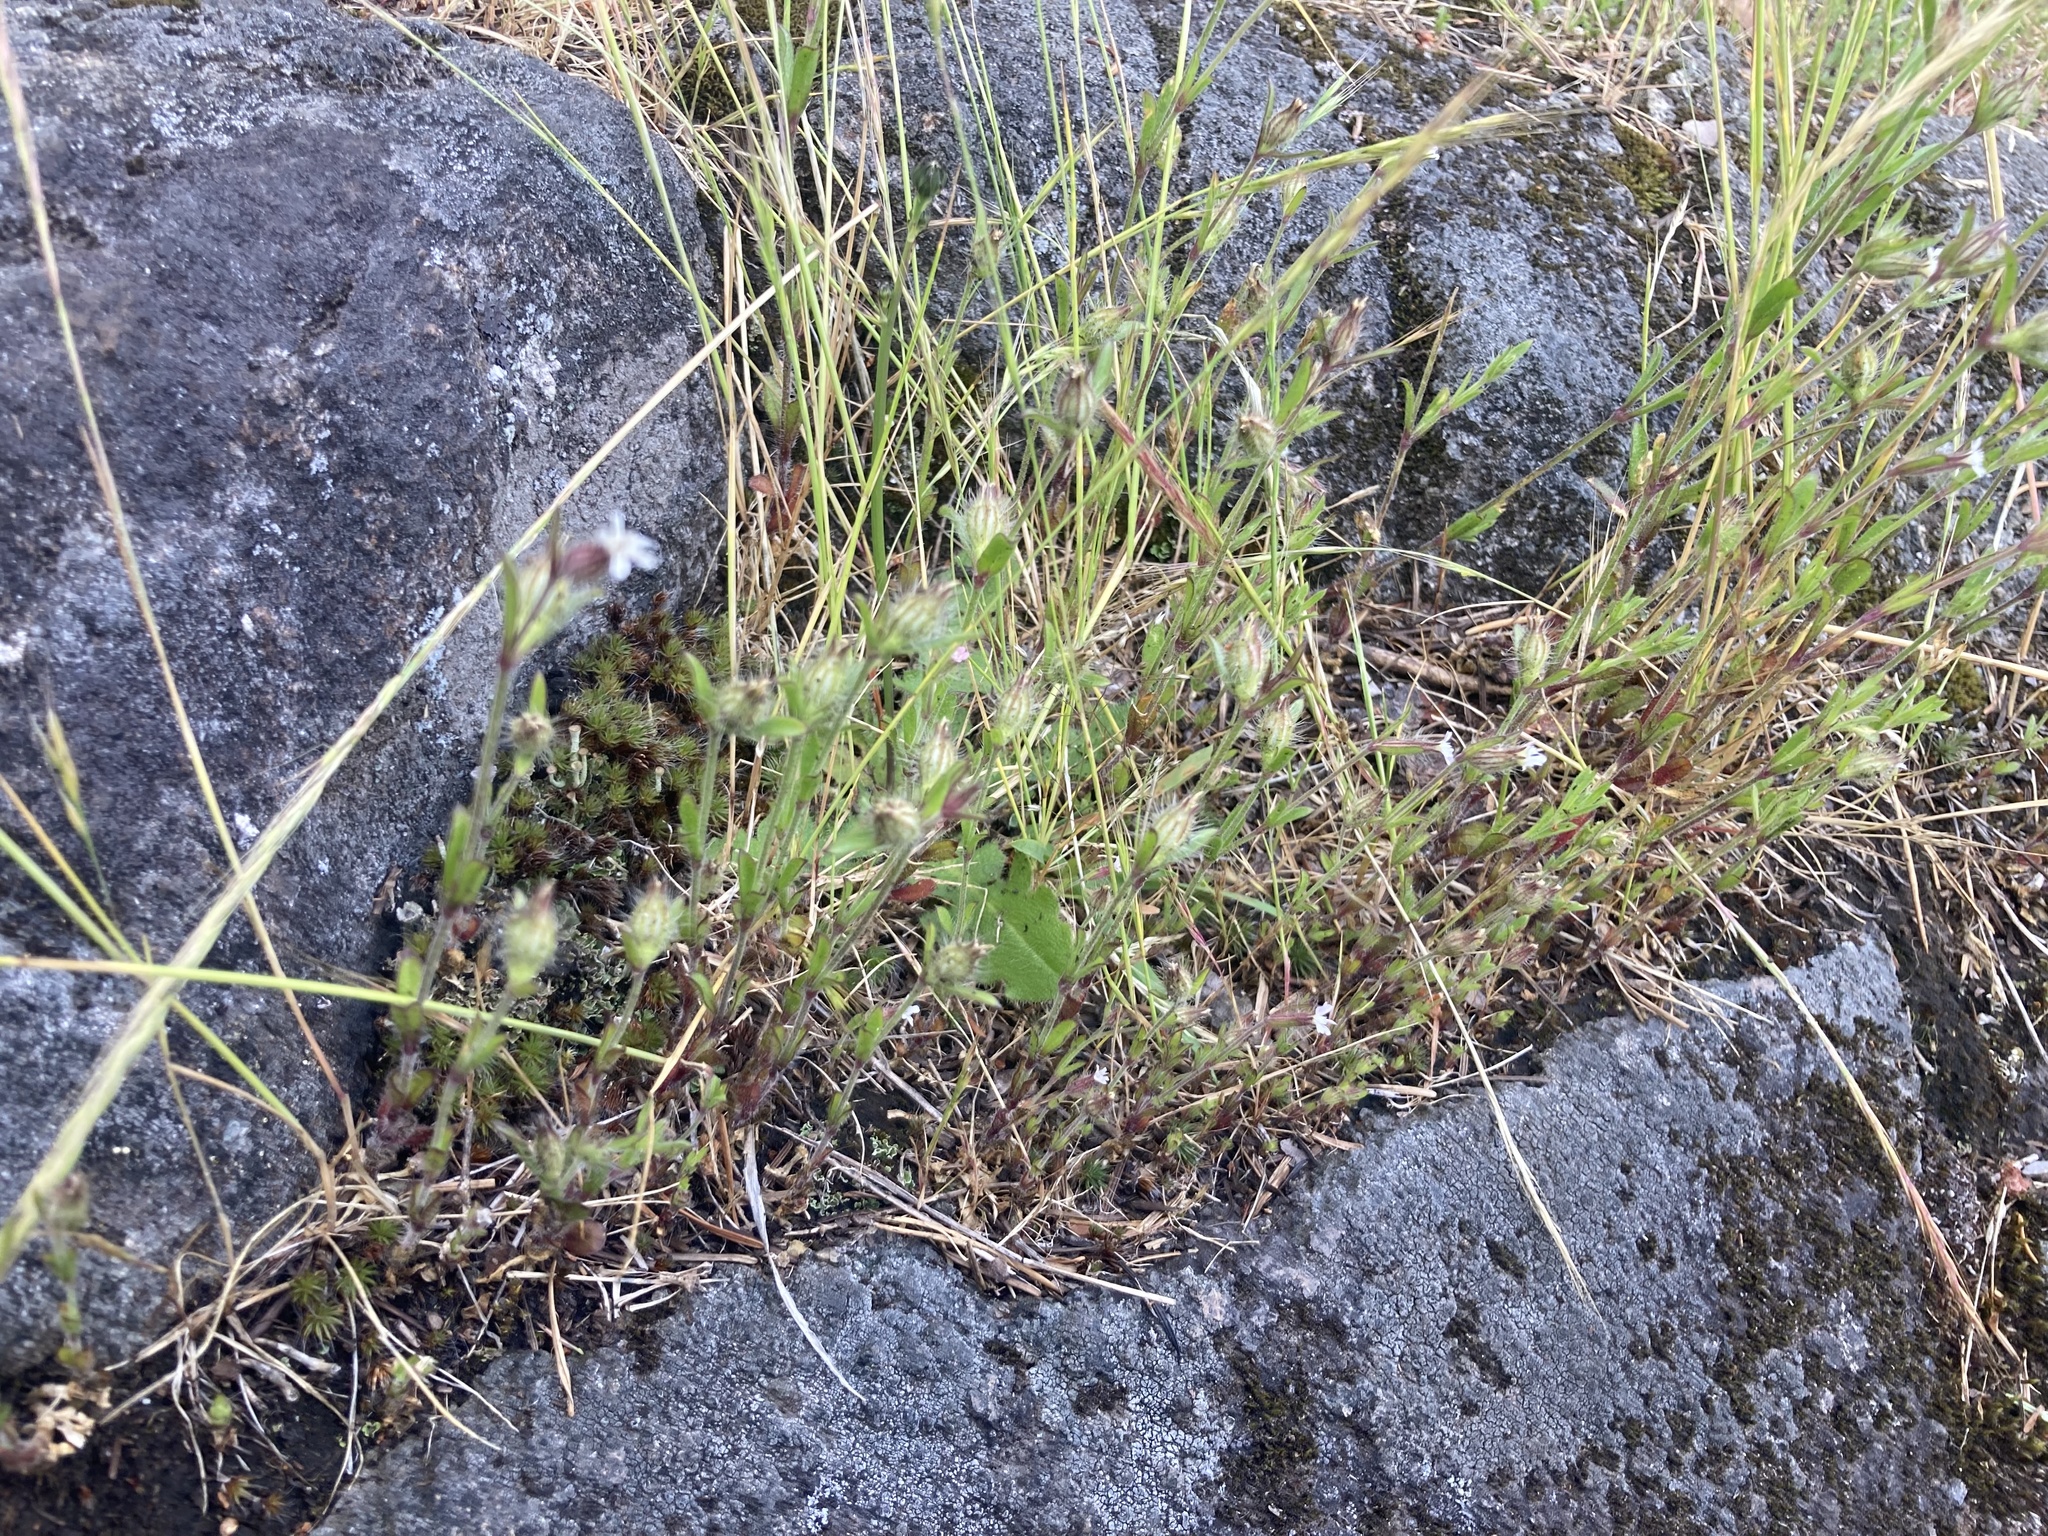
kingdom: Plantae
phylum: Tracheophyta
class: Magnoliopsida
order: Caryophyllales
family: Caryophyllaceae
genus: Silene
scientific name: Silene gallica
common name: Small-flowered catchfly
